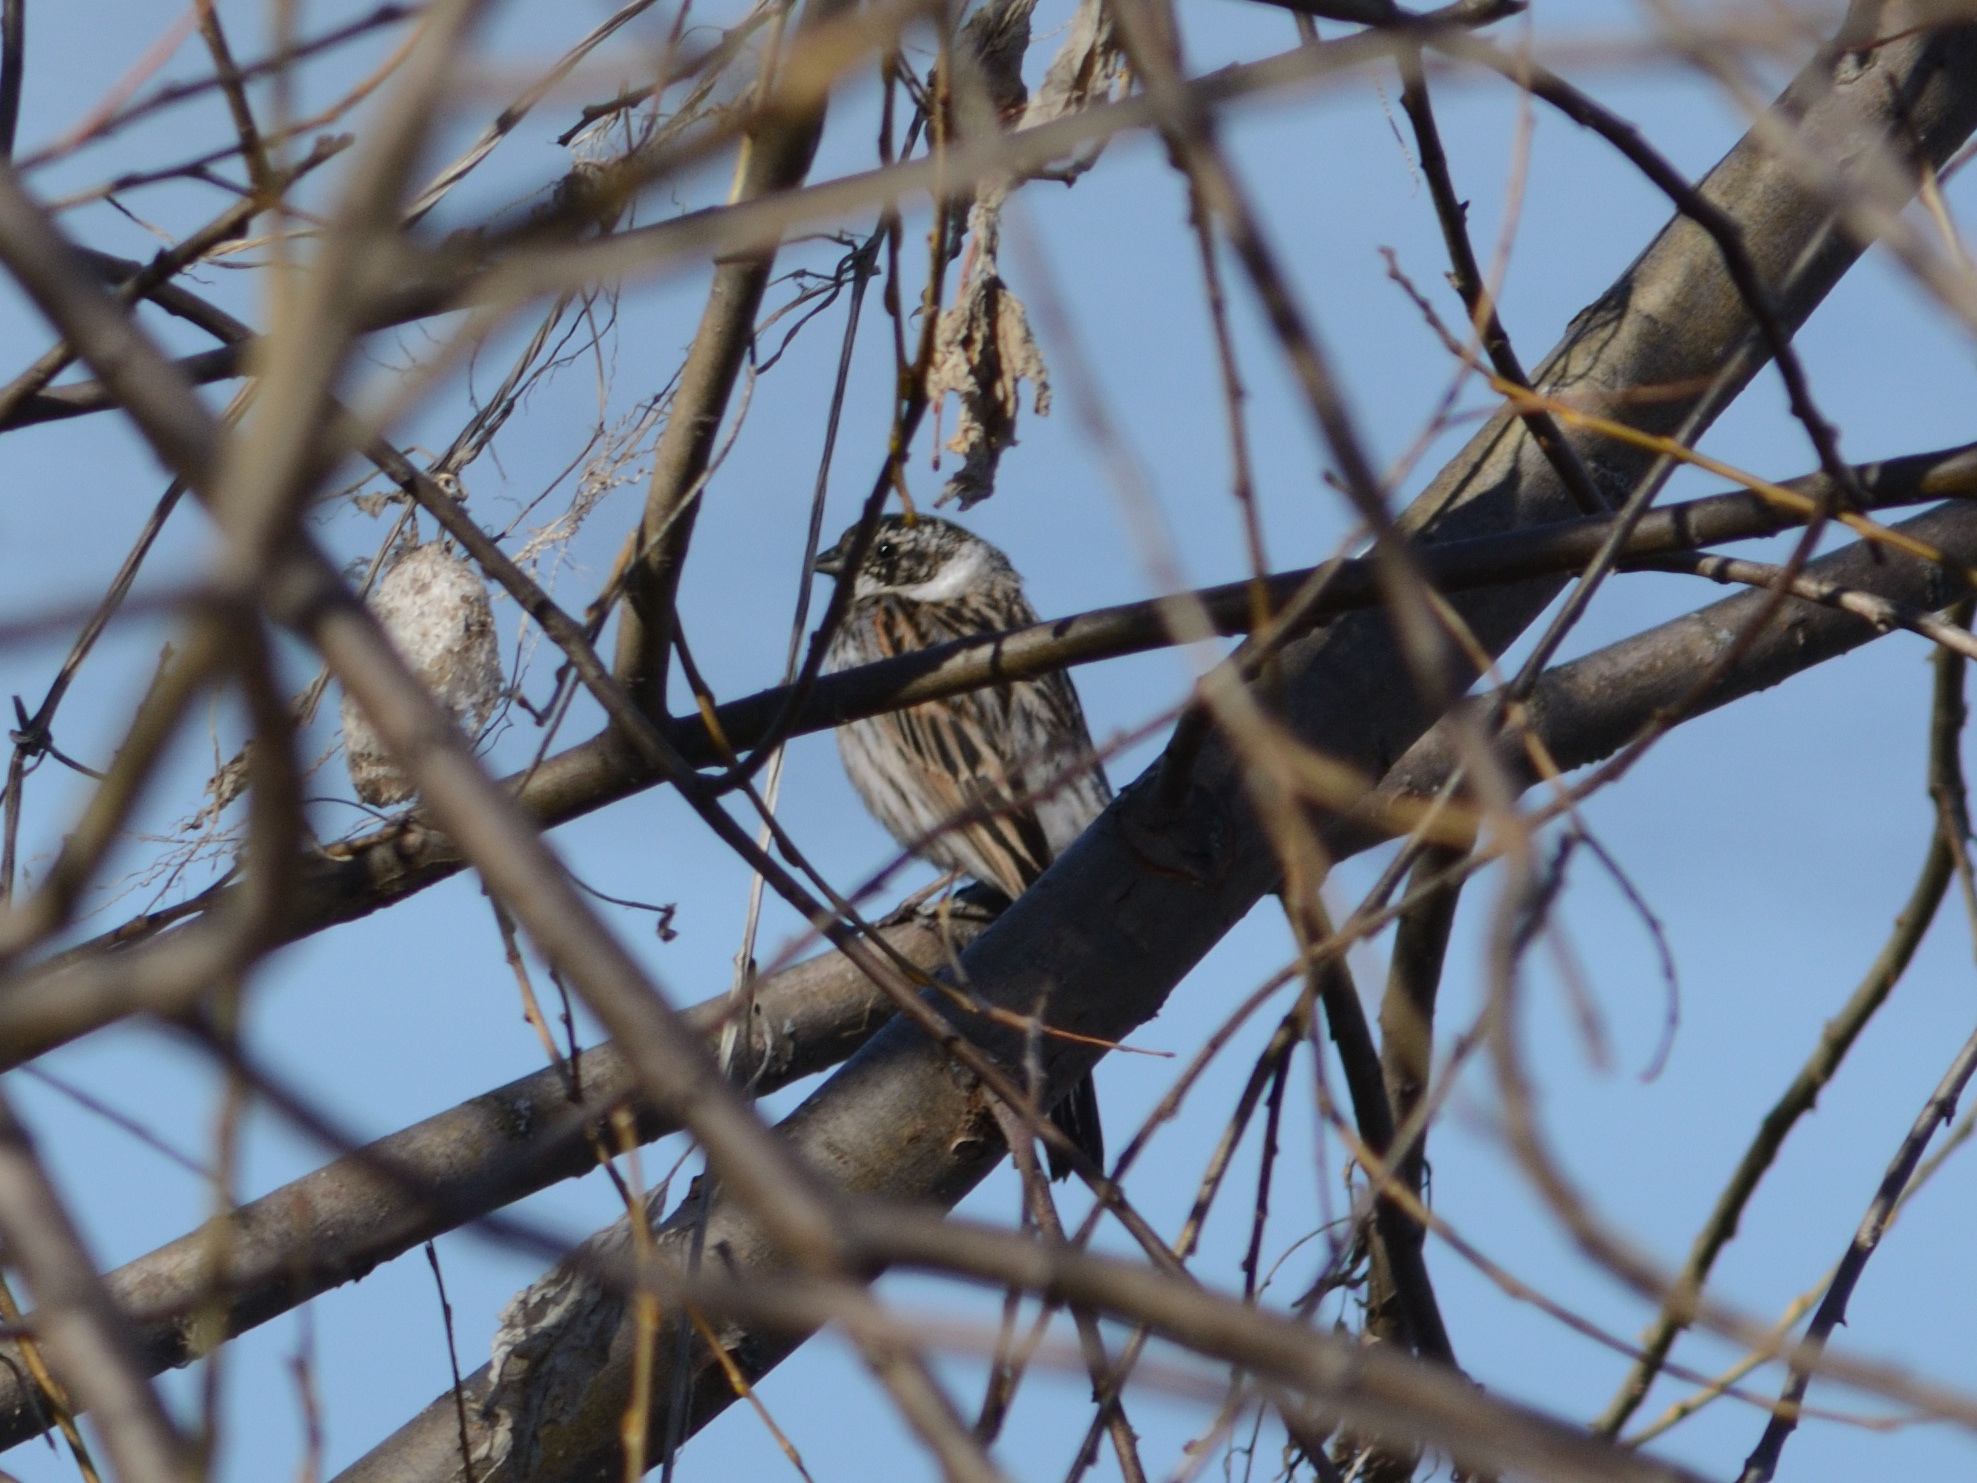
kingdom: Animalia
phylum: Chordata
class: Aves
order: Passeriformes
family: Emberizidae
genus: Emberiza
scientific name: Emberiza schoeniclus
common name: Reed bunting
